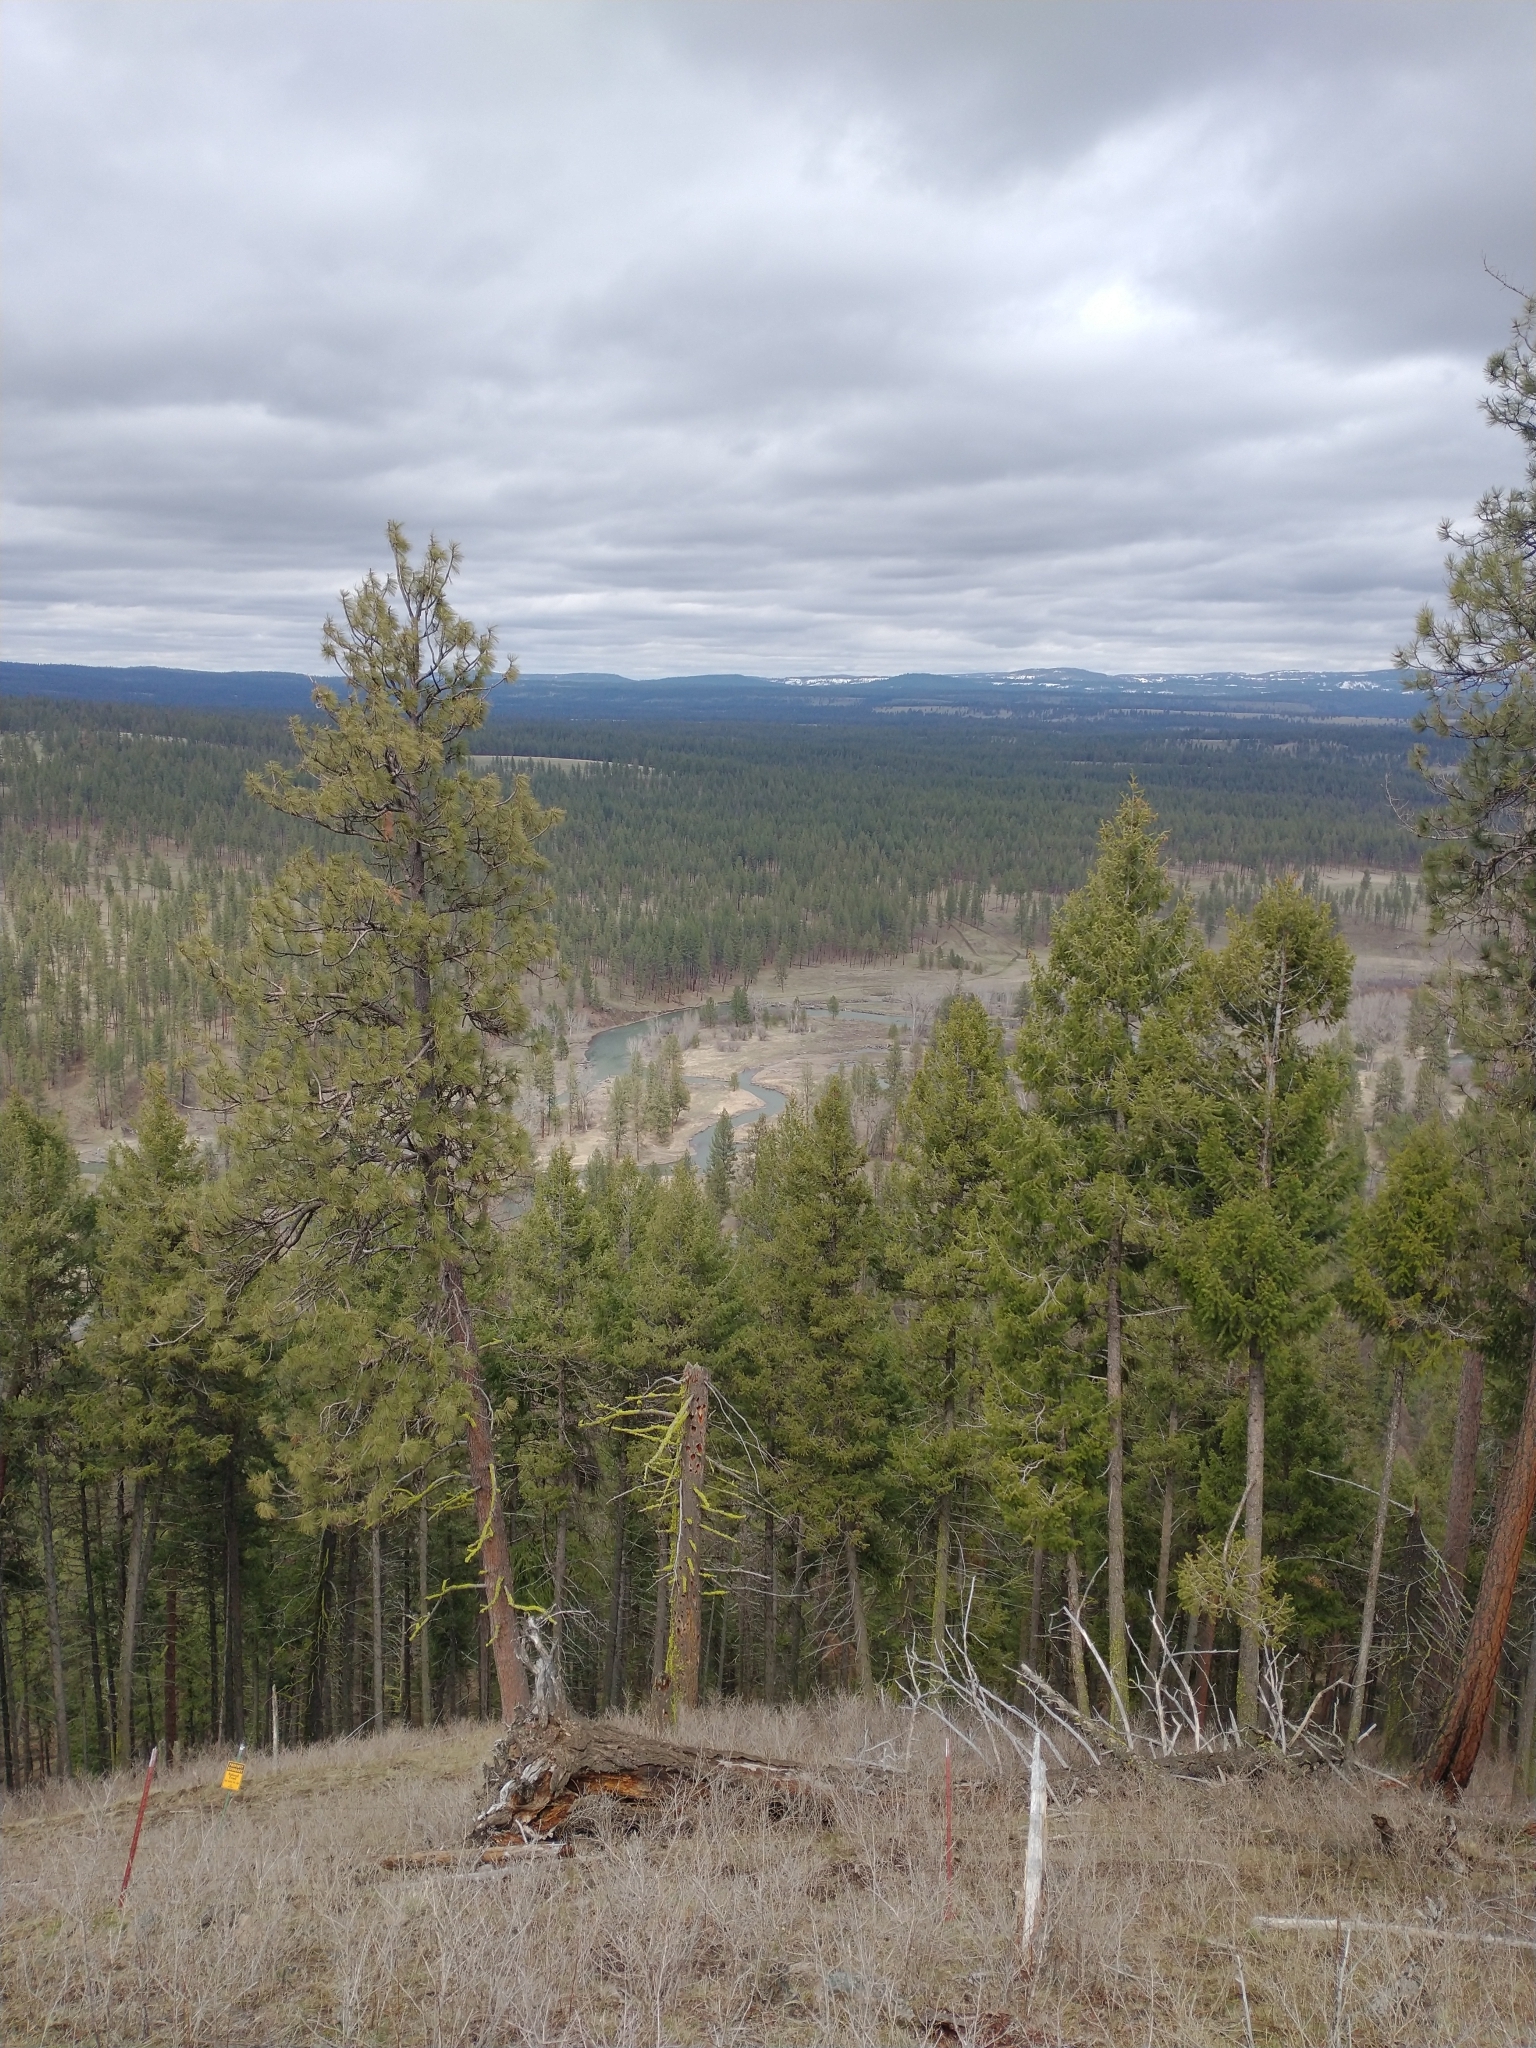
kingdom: Plantae
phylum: Tracheophyta
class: Pinopsida
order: Pinales
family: Pinaceae
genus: Pseudotsuga
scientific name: Pseudotsuga menziesii
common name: Douglas fir
